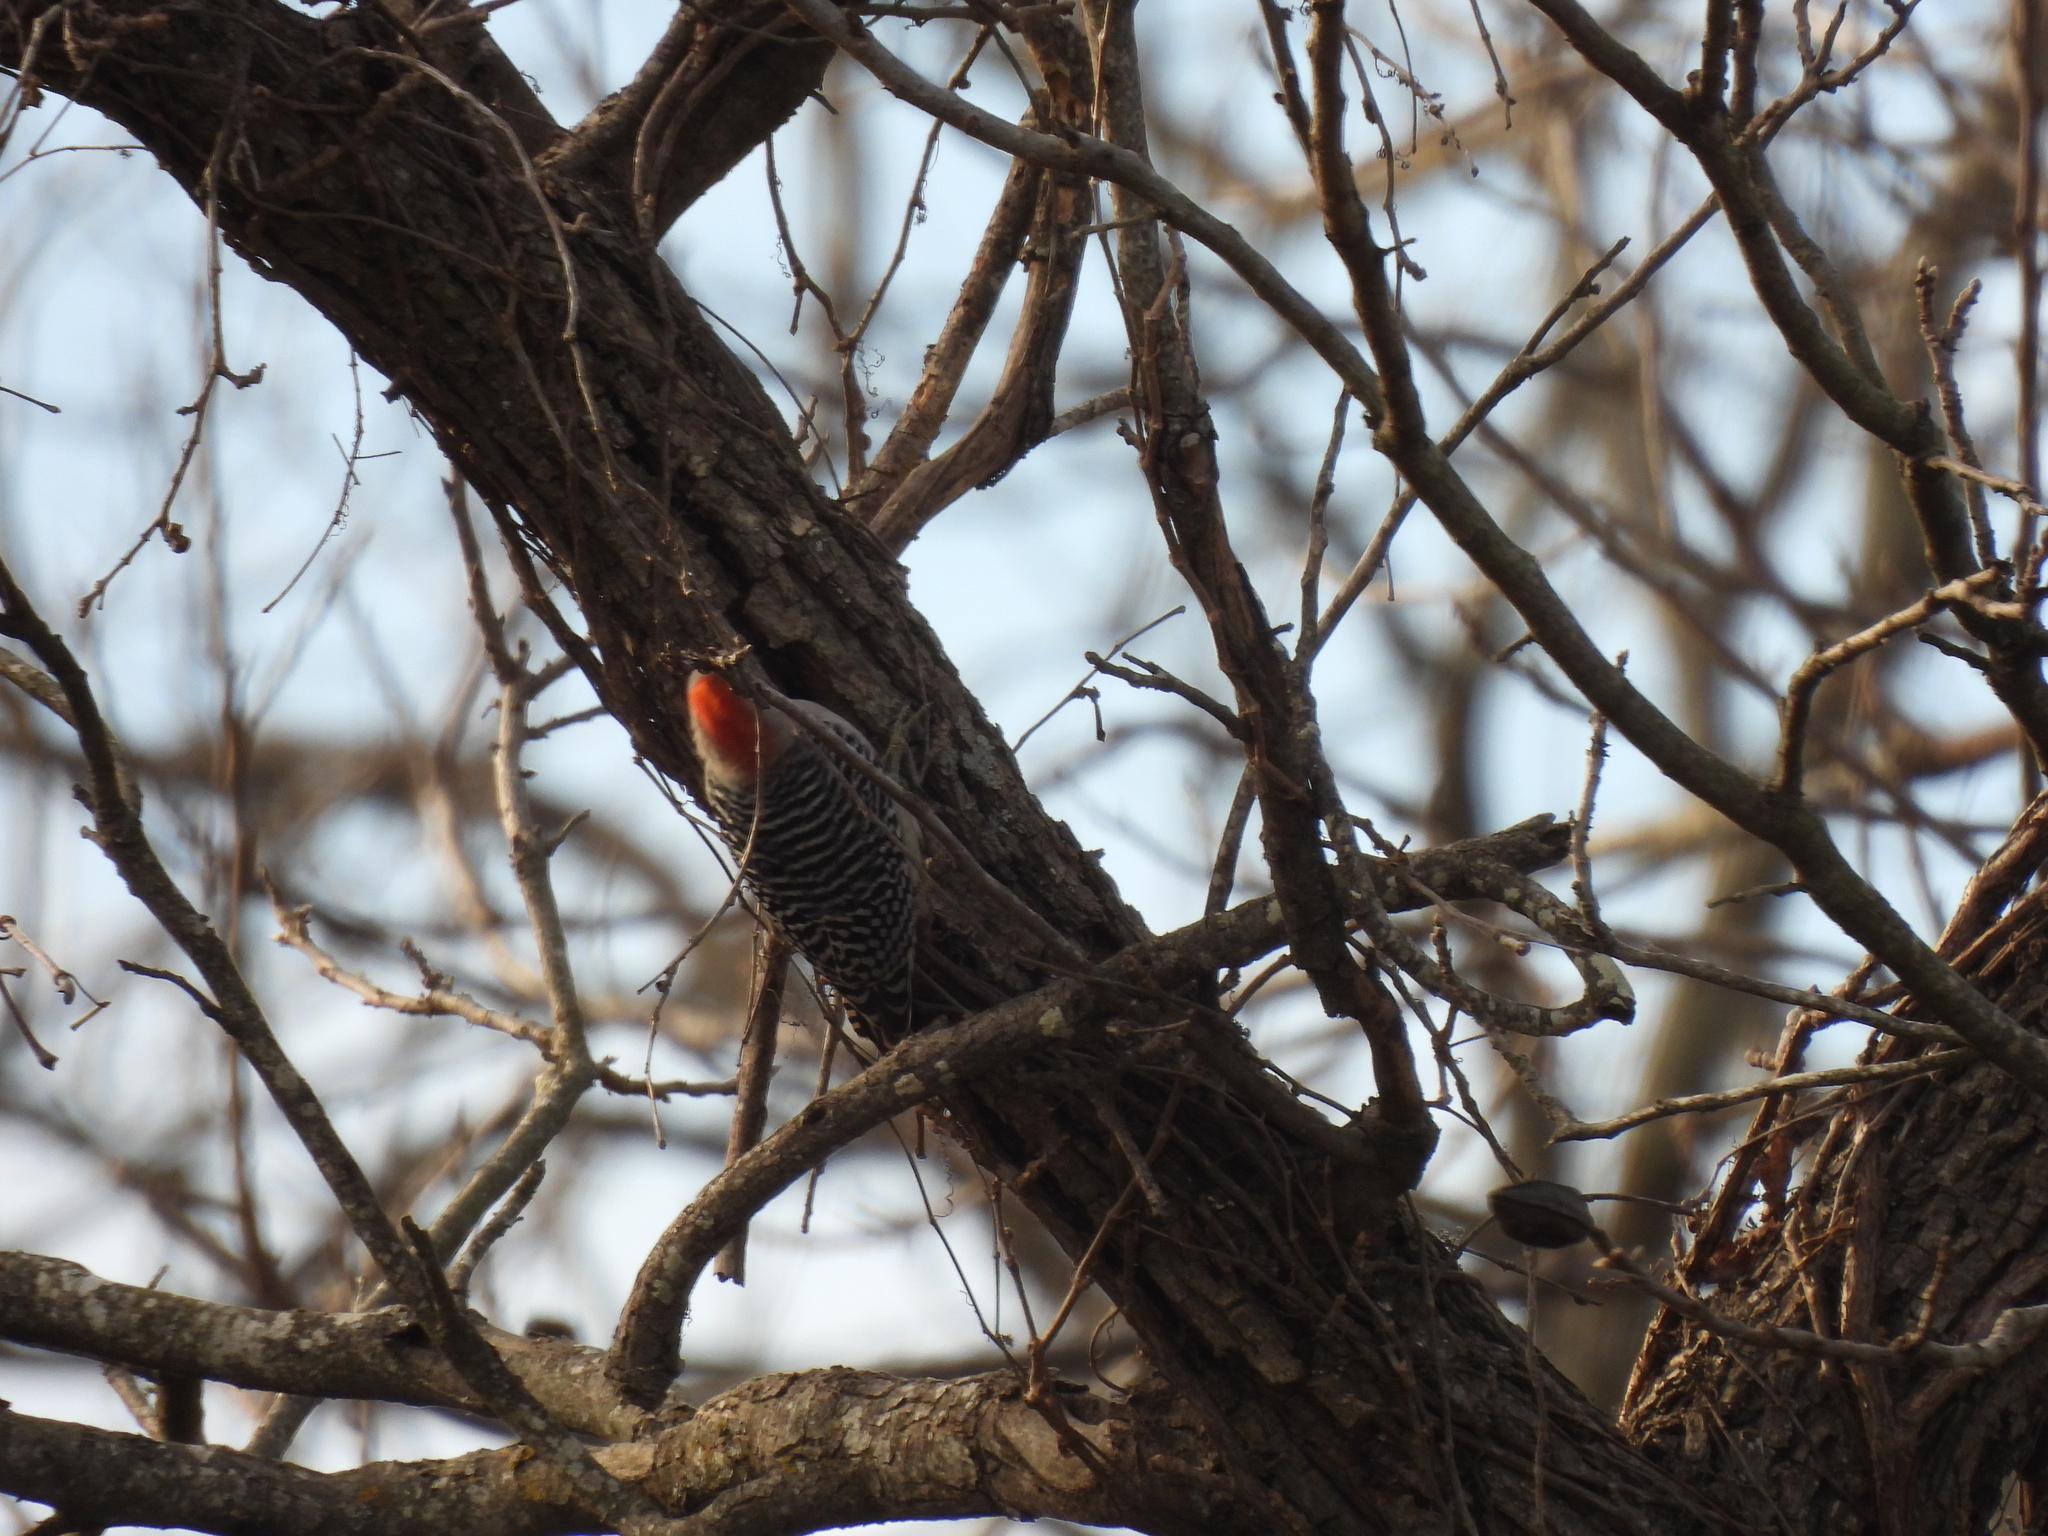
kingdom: Animalia
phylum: Chordata
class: Aves
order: Piciformes
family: Picidae
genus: Melanerpes
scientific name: Melanerpes carolinus
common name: Red-bellied woodpecker
